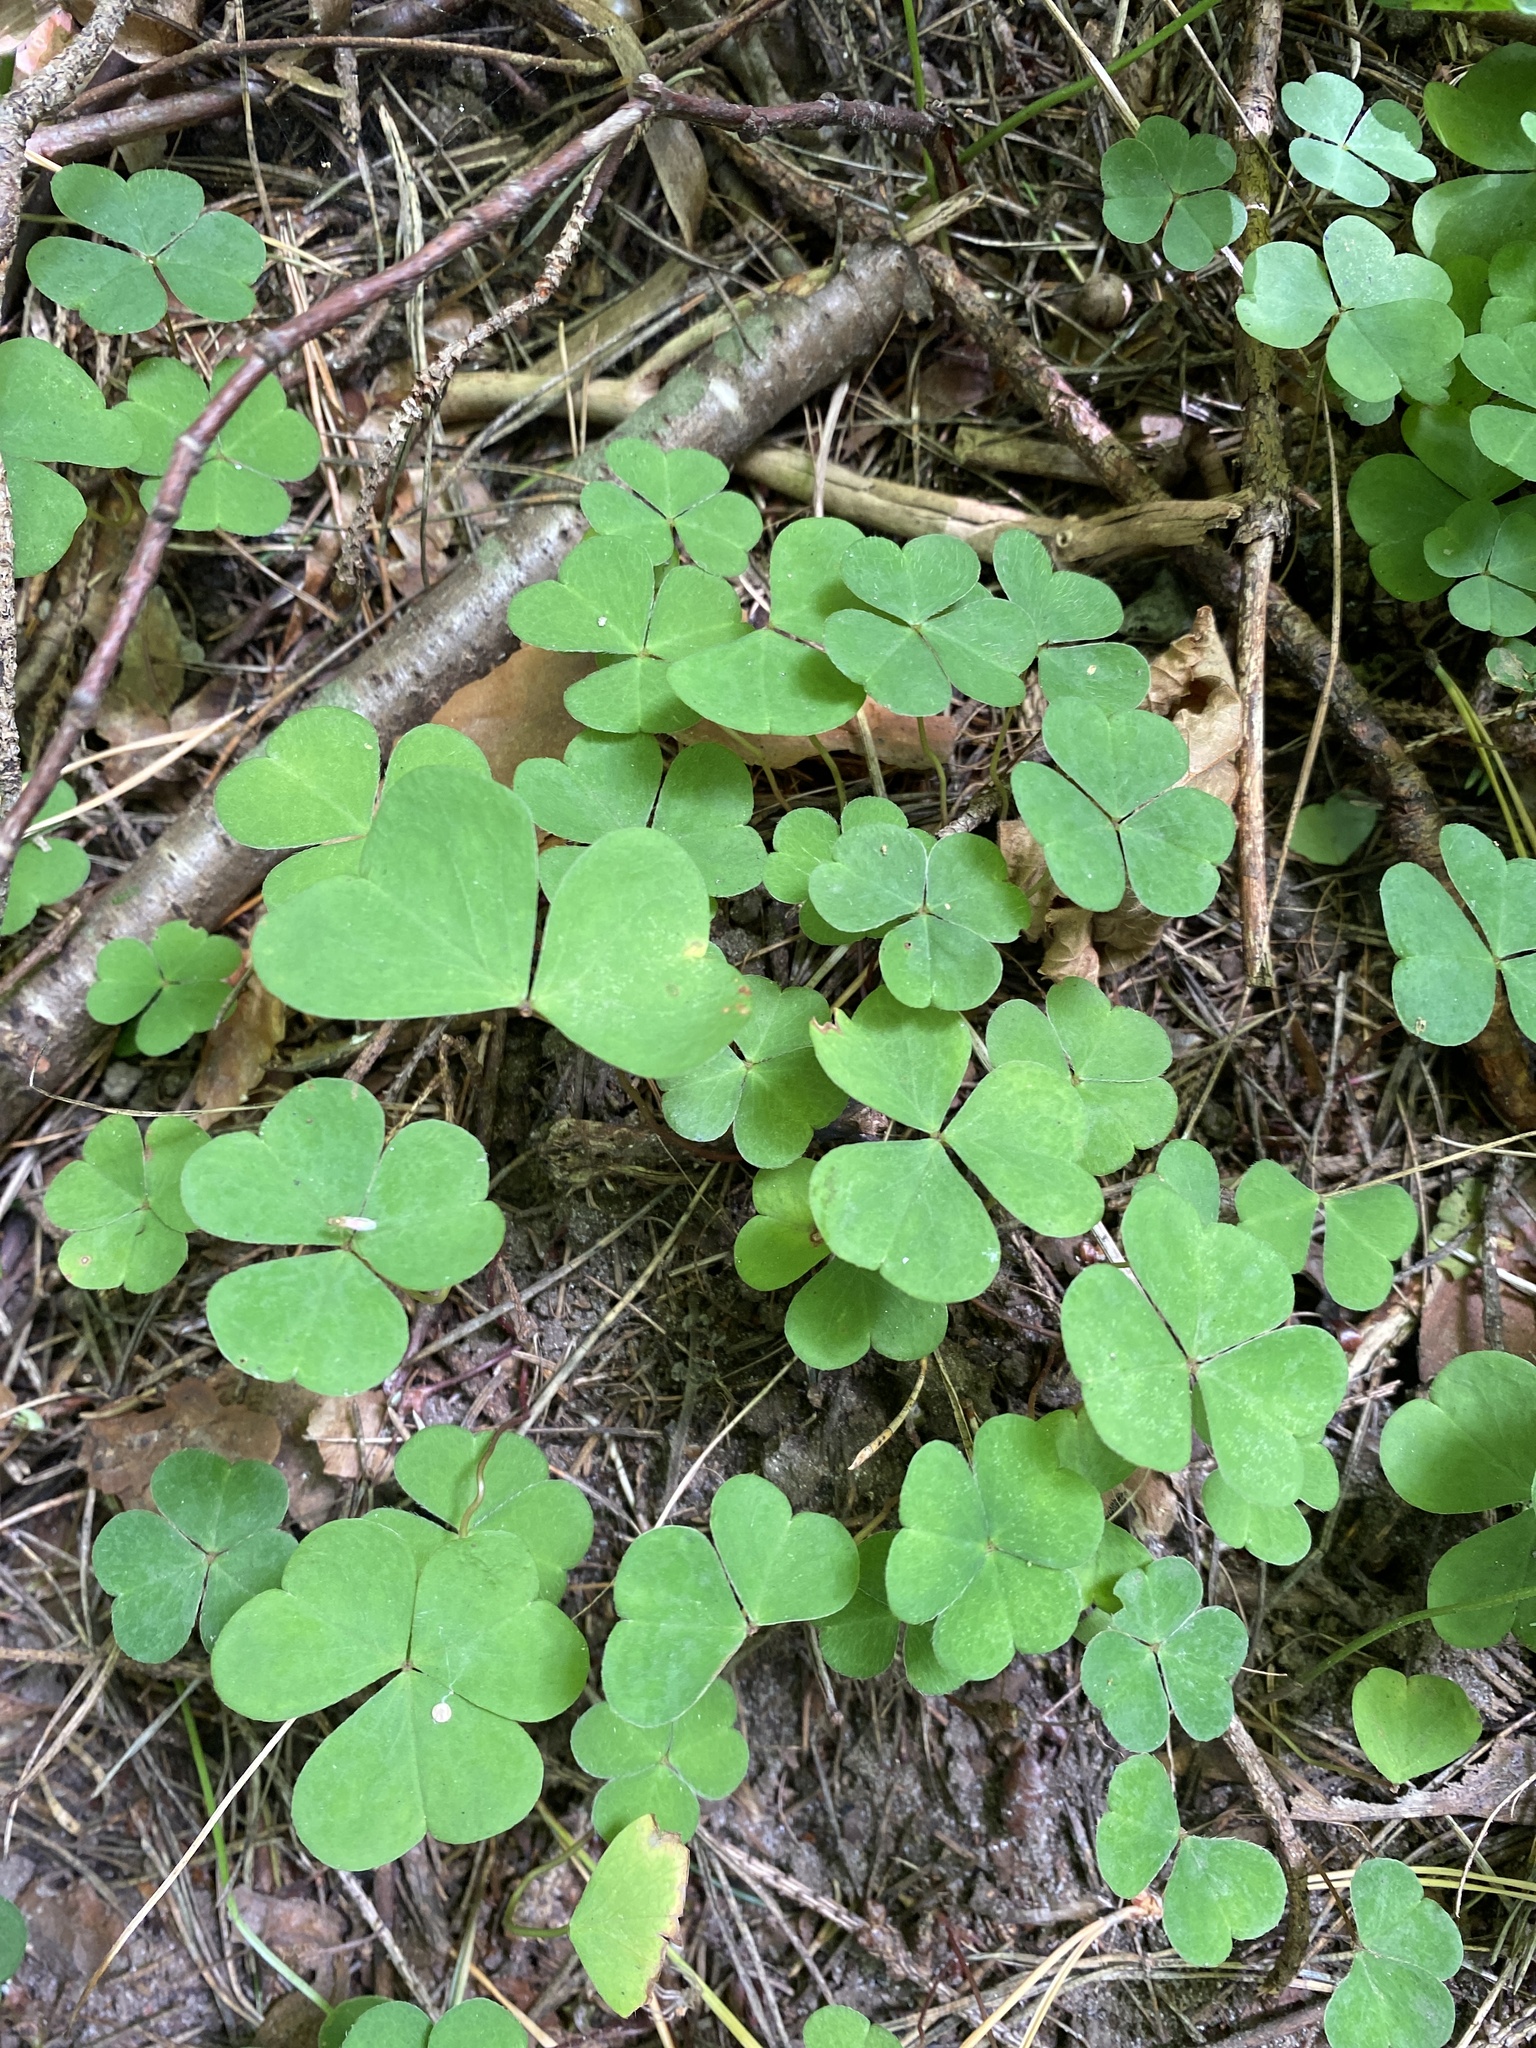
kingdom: Plantae
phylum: Tracheophyta
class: Magnoliopsida
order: Oxalidales
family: Oxalidaceae
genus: Oxalis
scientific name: Oxalis acetosella
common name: Wood-sorrel
